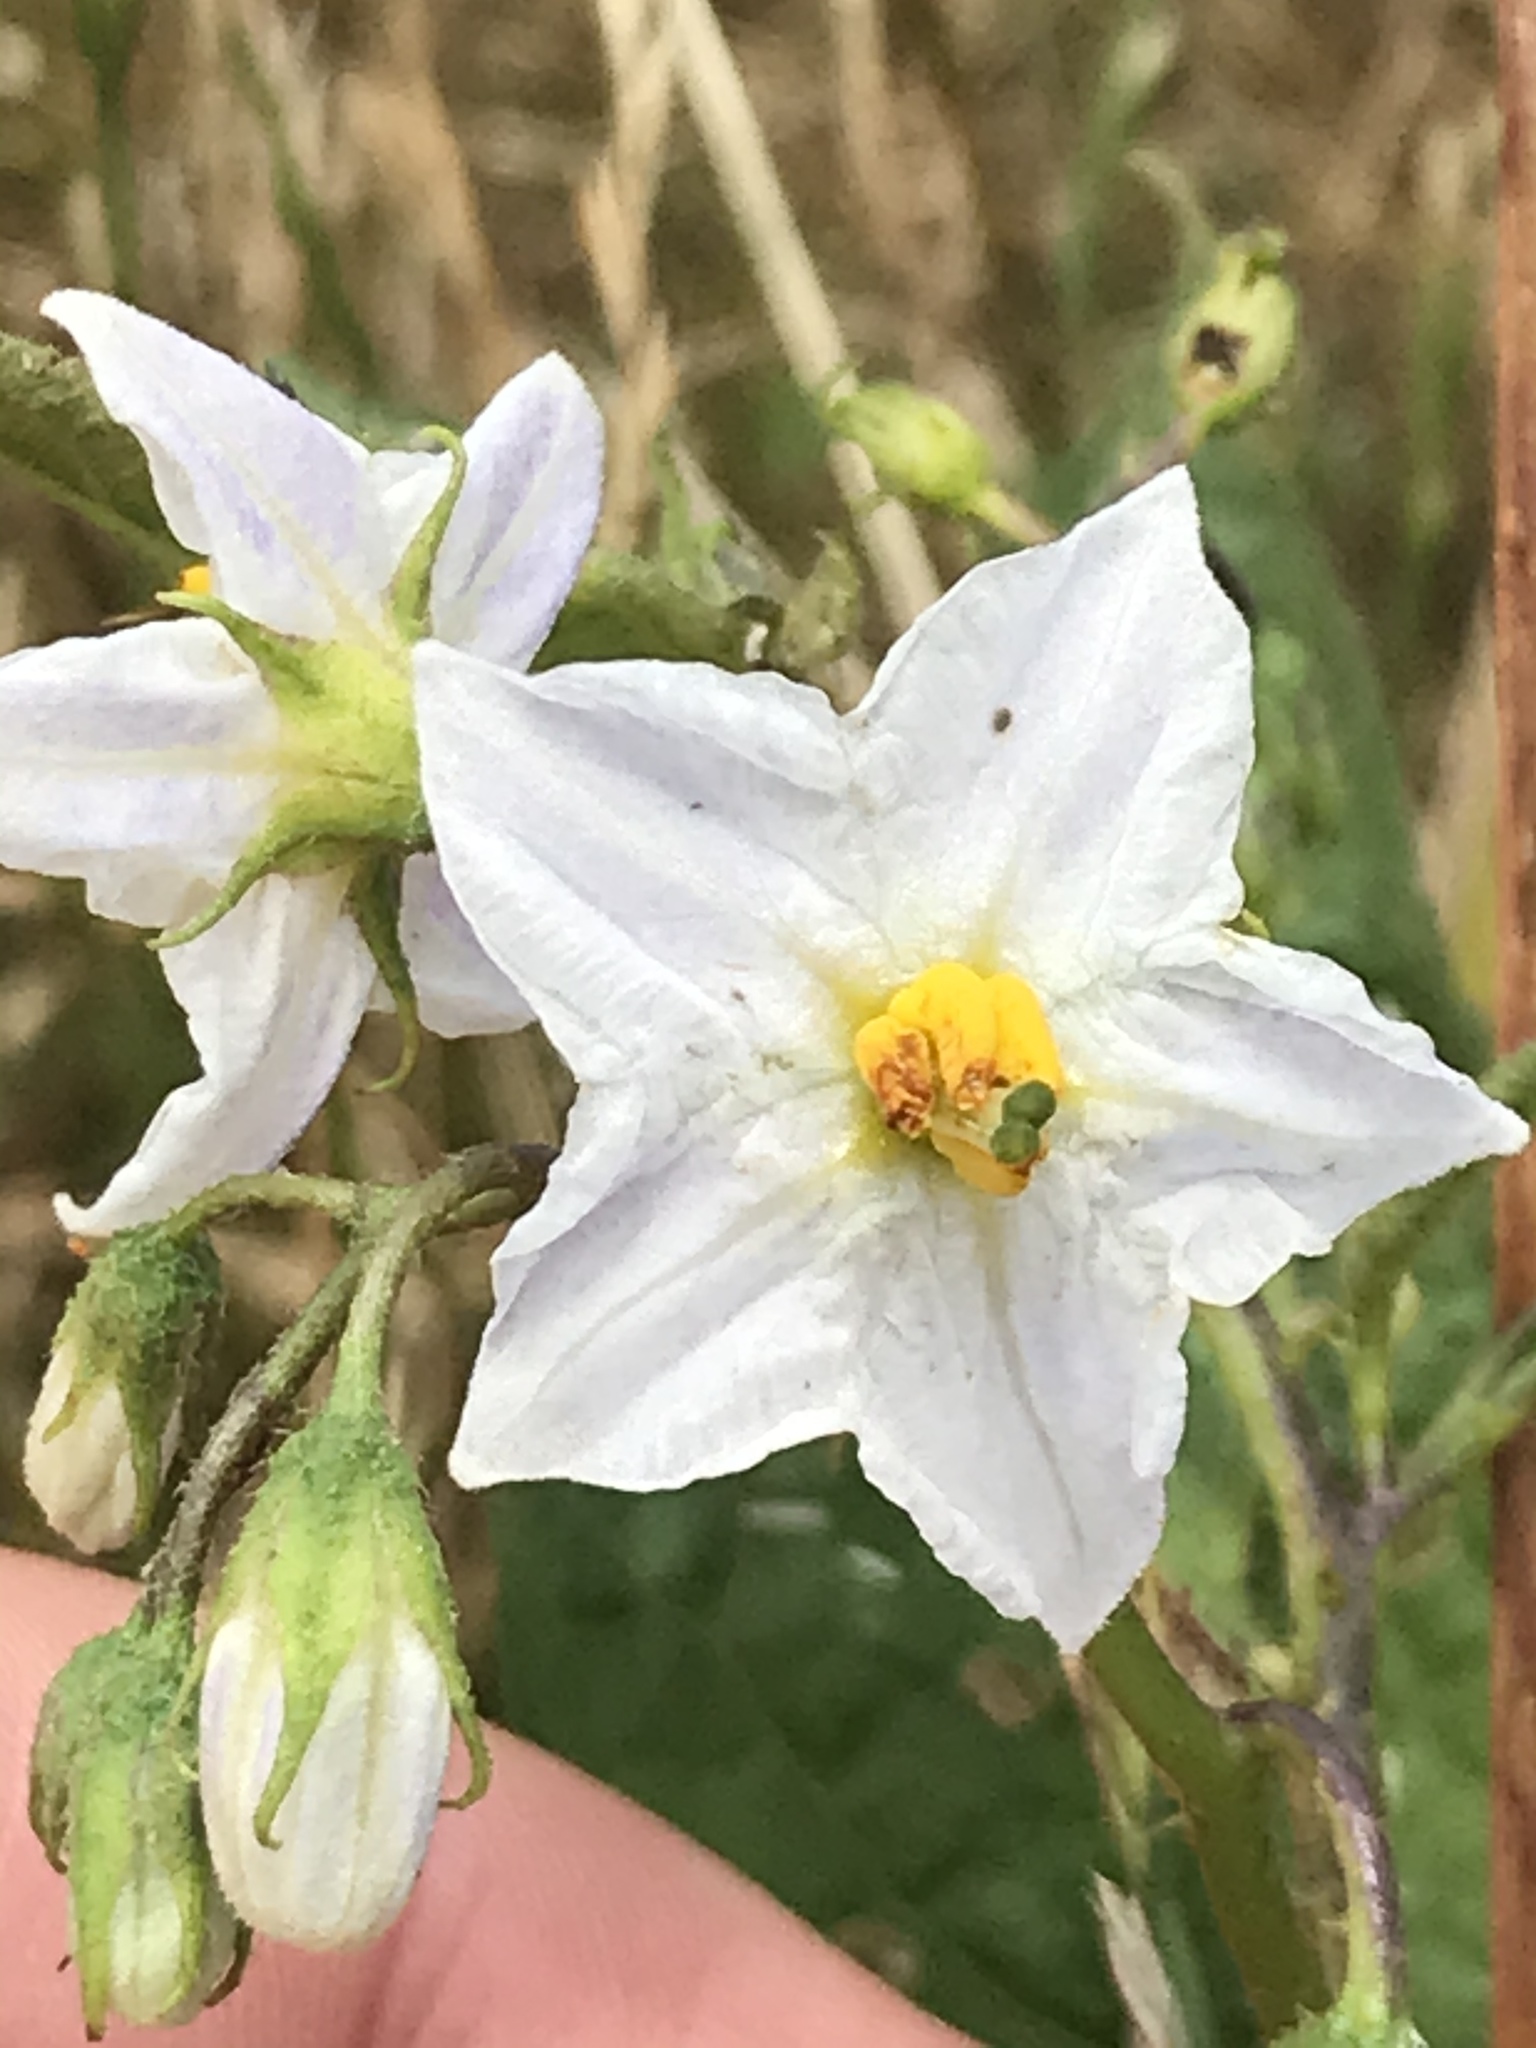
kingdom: Plantae
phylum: Tracheophyta
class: Magnoliopsida
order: Solanales
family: Solanaceae
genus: Solanum
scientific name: Solanum carolinense
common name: Horse-nettle
